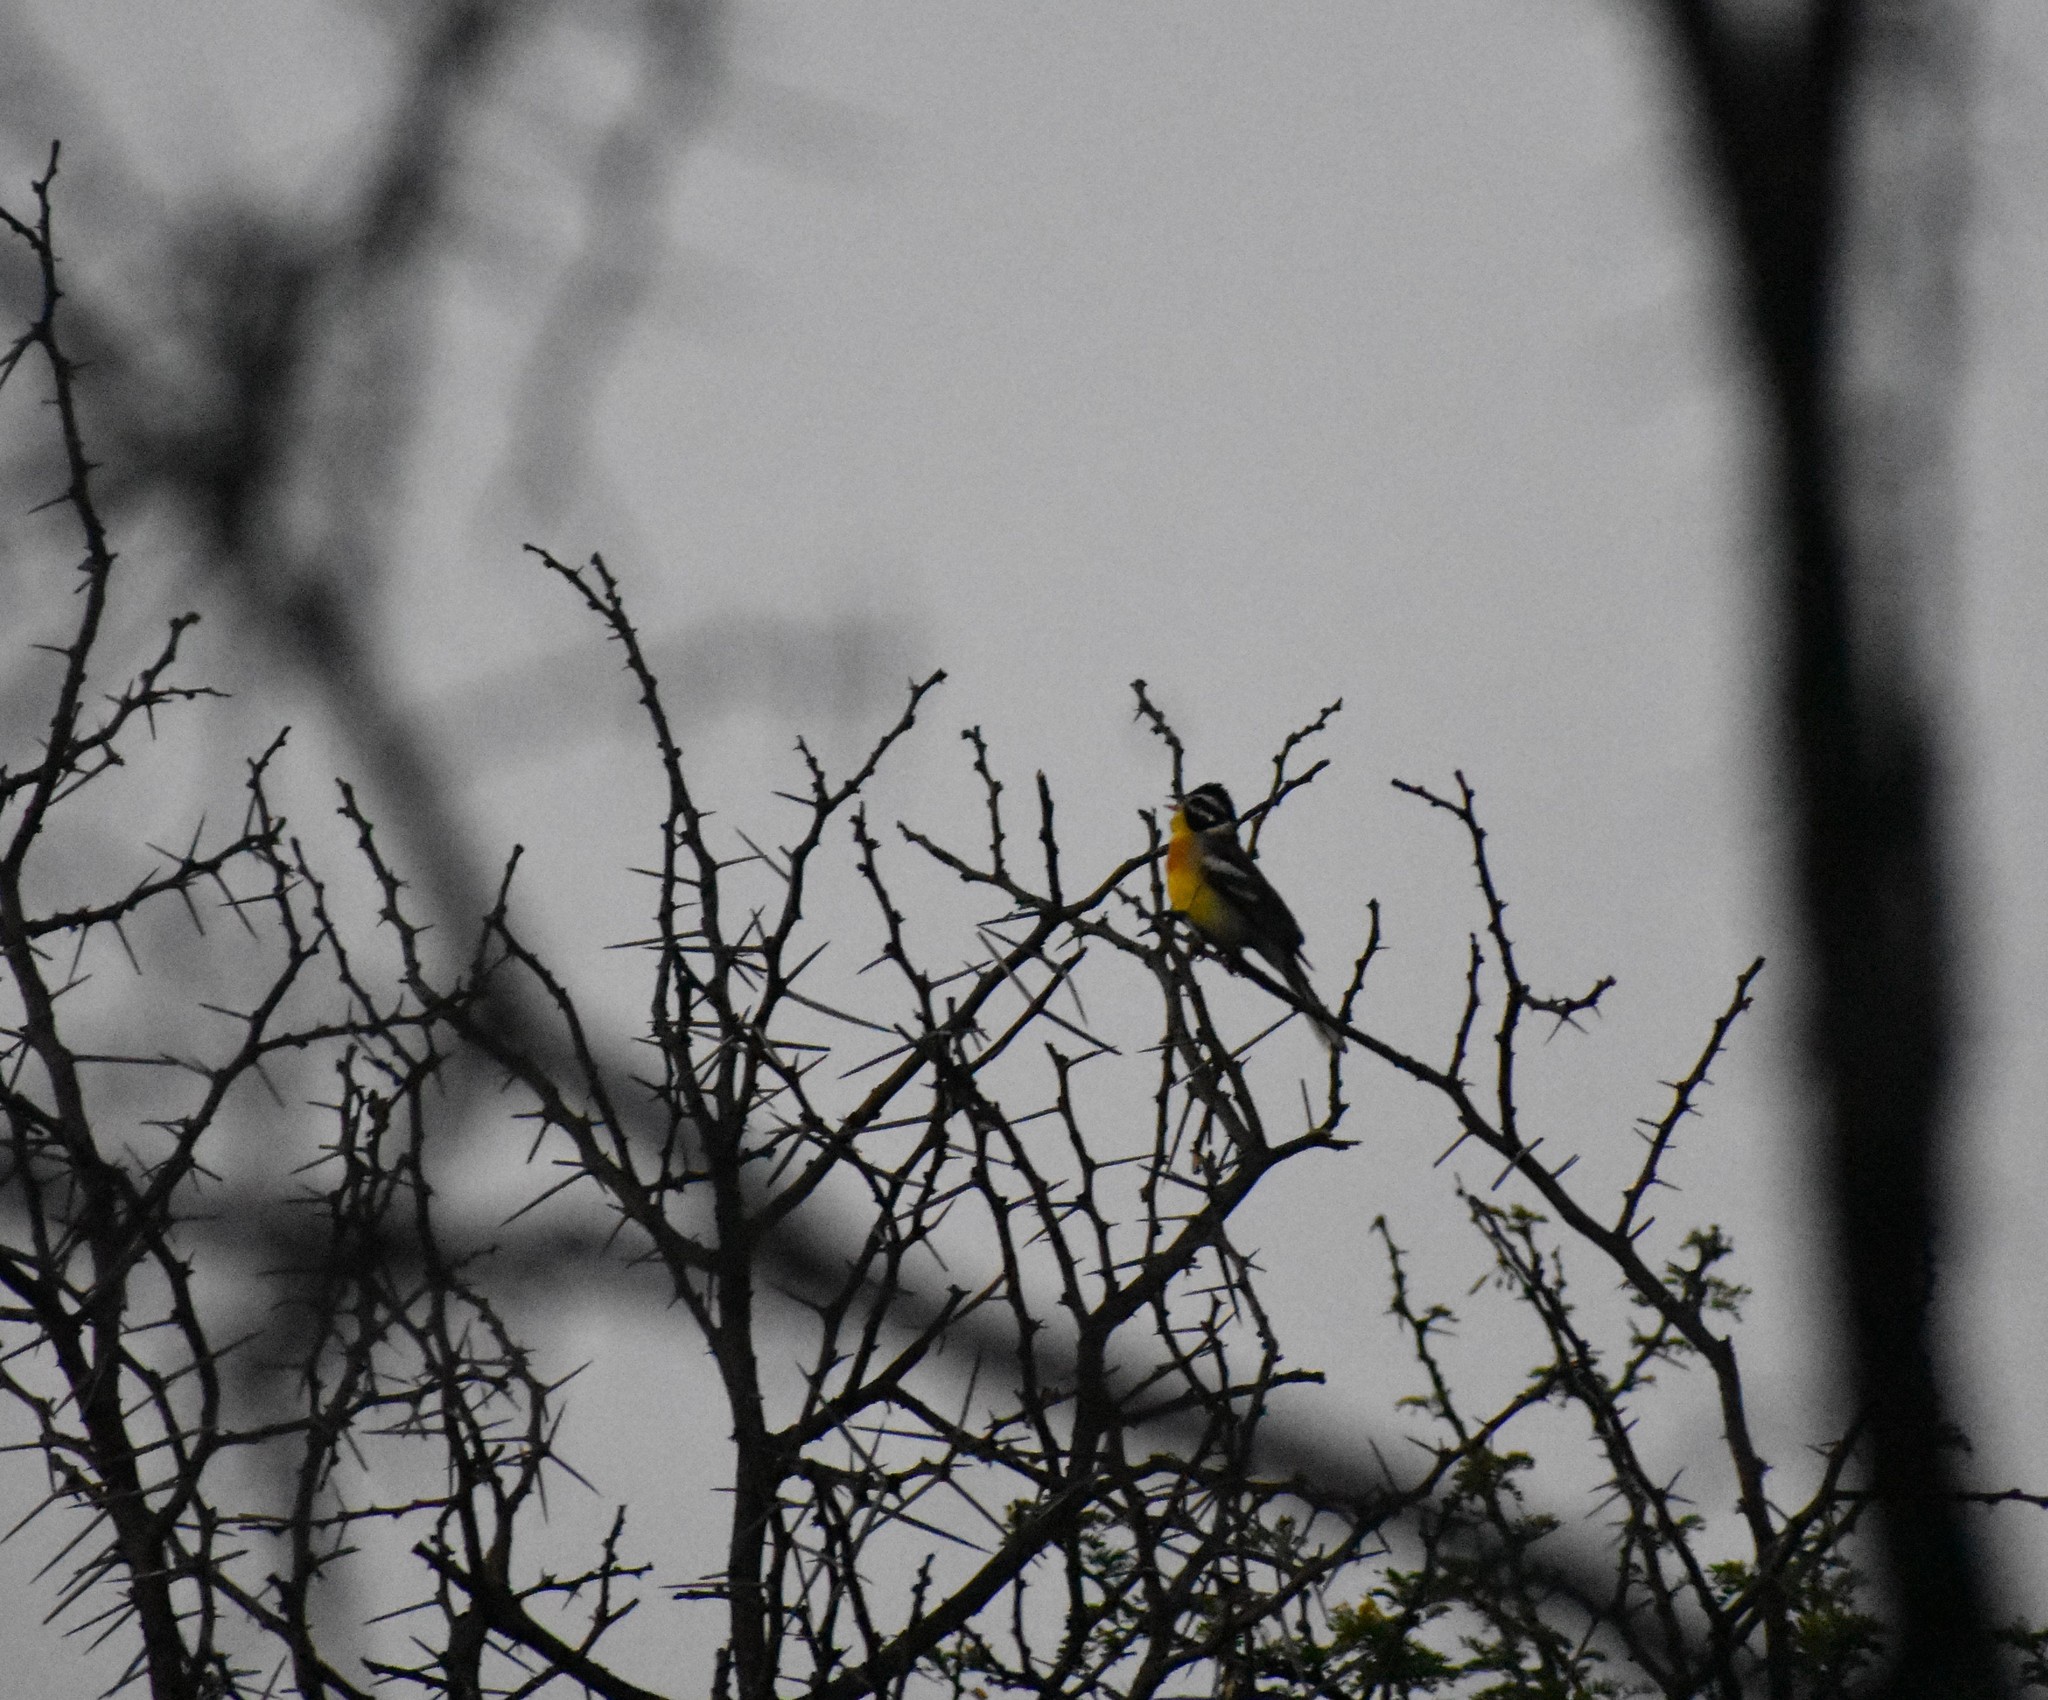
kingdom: Animalia
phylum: Chordata
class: Aves
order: Passeriformes
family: Emberizidae
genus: Emberiza
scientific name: Emberiza flaviventris
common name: Golden-breasted bunting
